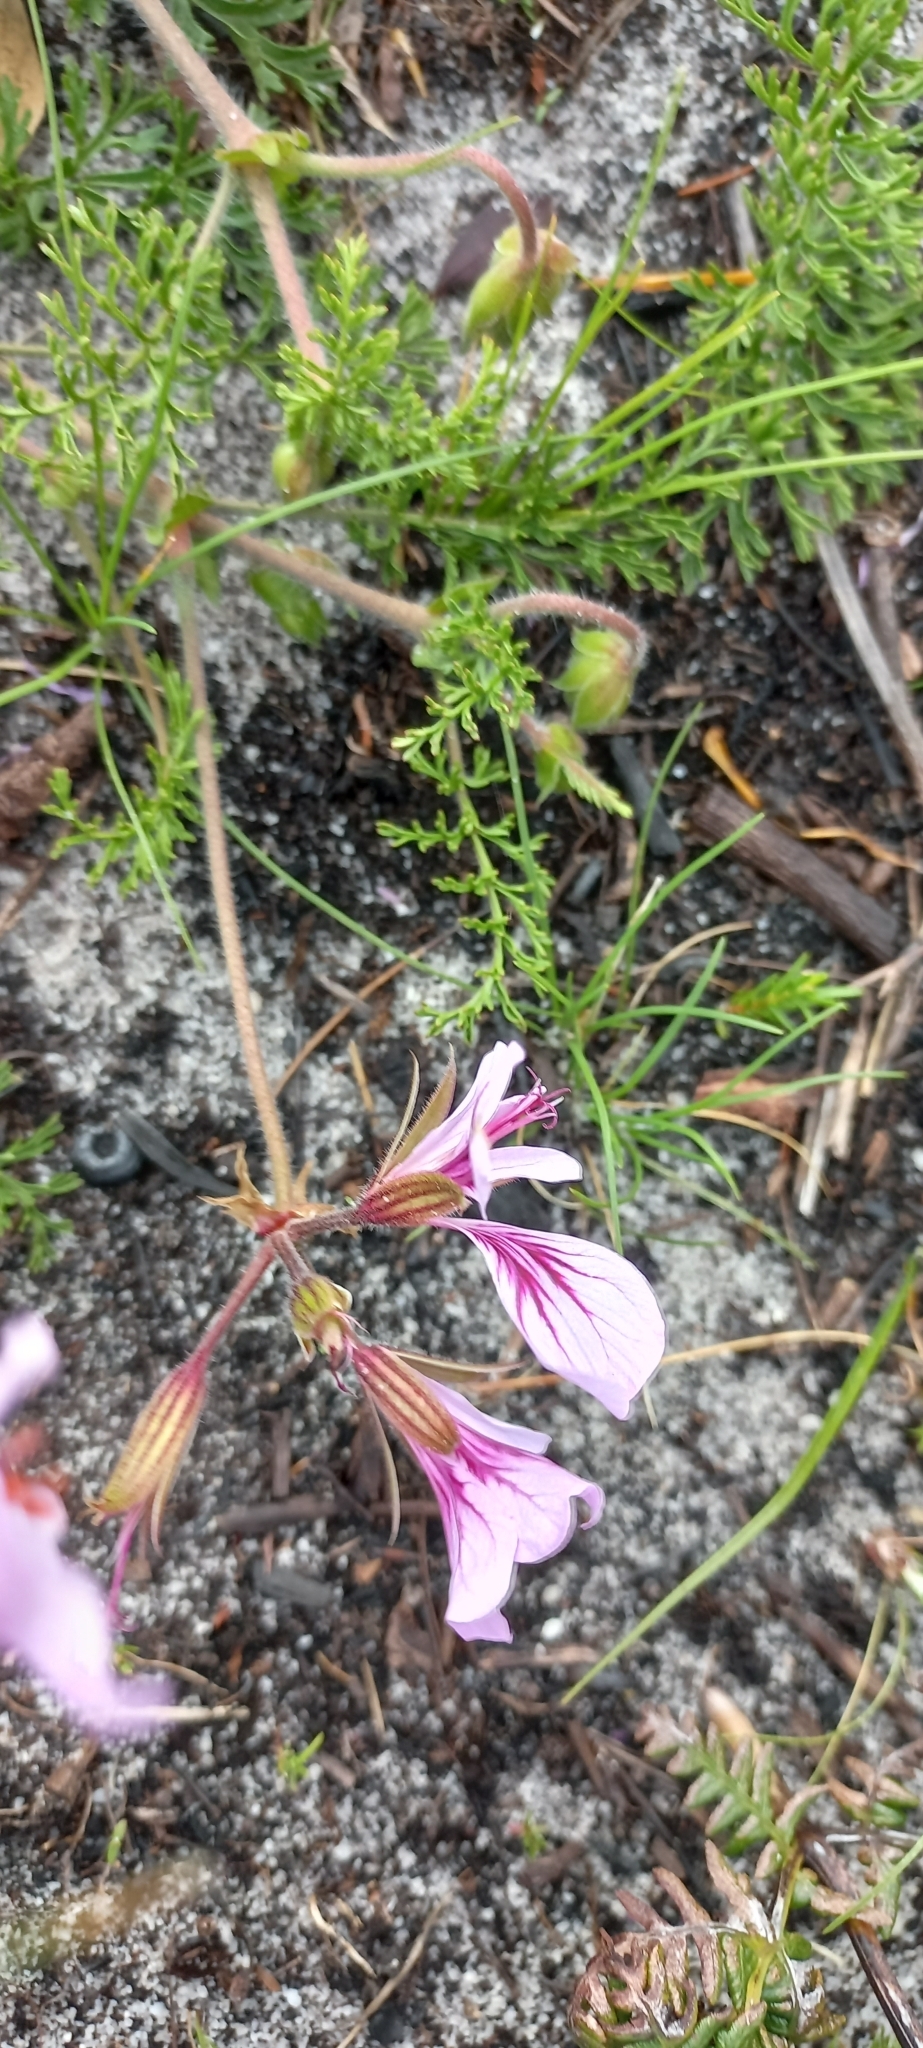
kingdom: Plantae
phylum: Tracheophyta
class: Magnoliopsida
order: Geraniales
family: Geraniaceae
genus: Pelargonium
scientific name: Pelargonium longicaule
